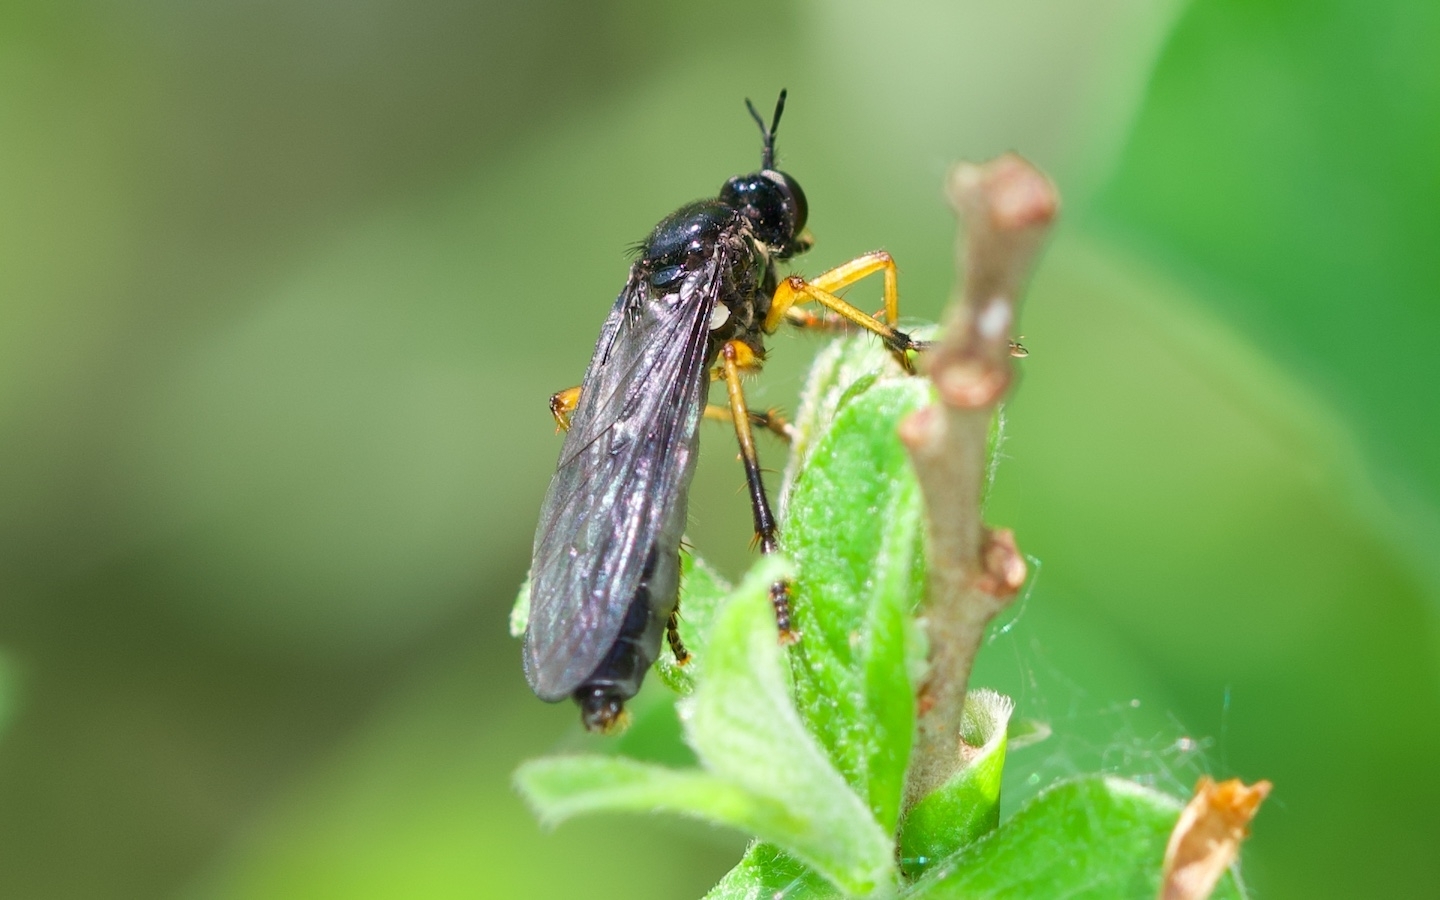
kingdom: Animalia
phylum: Arthropoda
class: Insecta
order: Diptera
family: Asilidae
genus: Dioctria
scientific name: Dioctria oelandica
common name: Orange-legged robberfly
